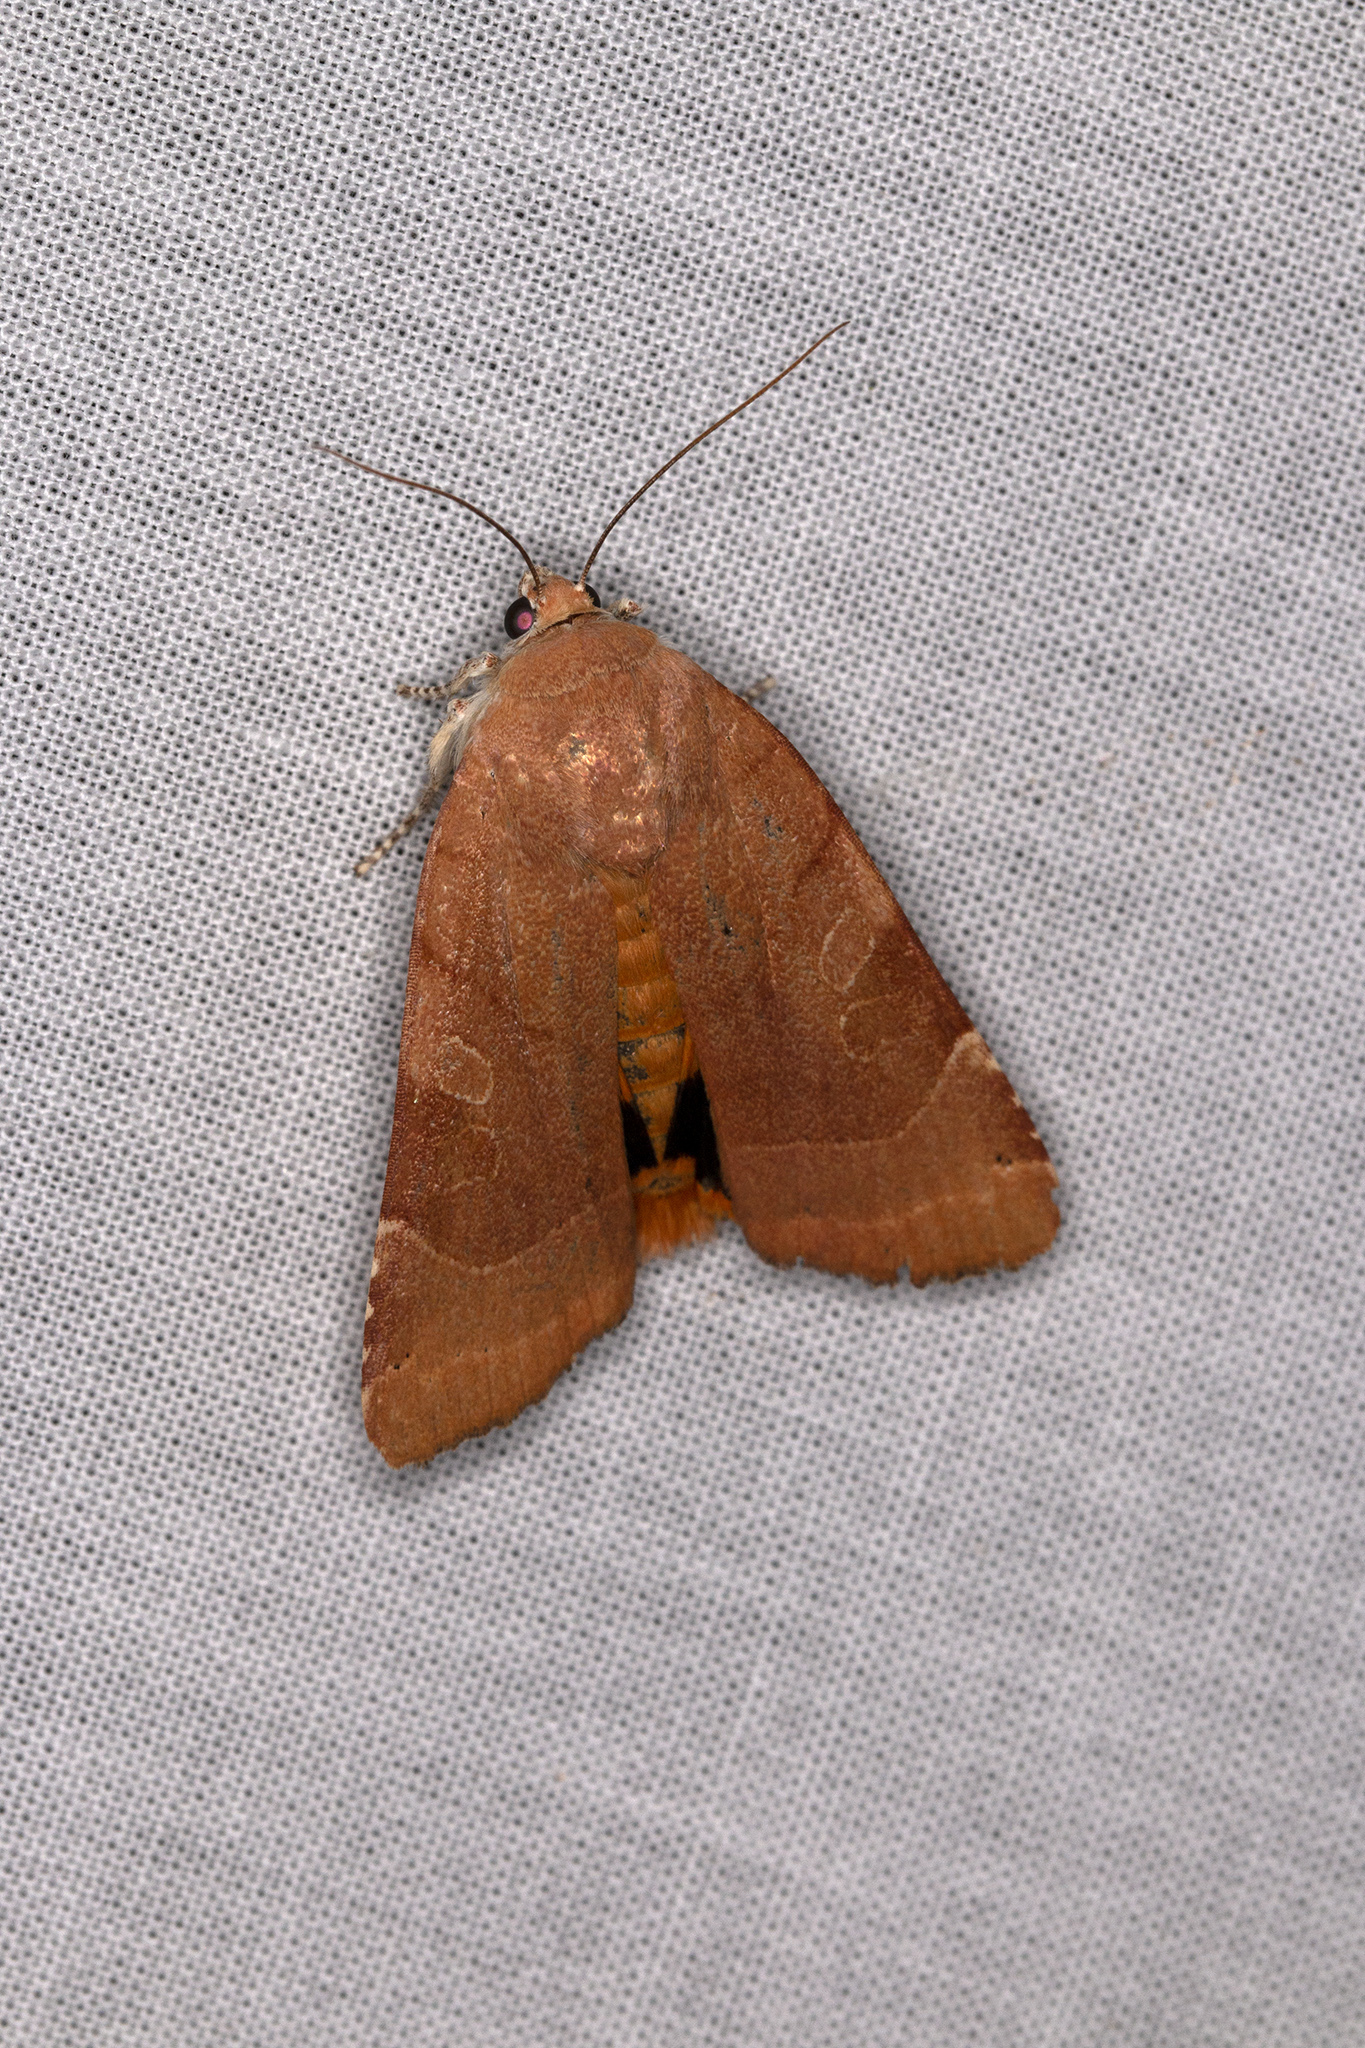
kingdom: Animalia
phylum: Arthropoda
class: Insecta
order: Lepidoptera
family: Noctuidae
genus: Noctua
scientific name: Noctua fimbriata
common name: Broad-bordered yellow underwing
